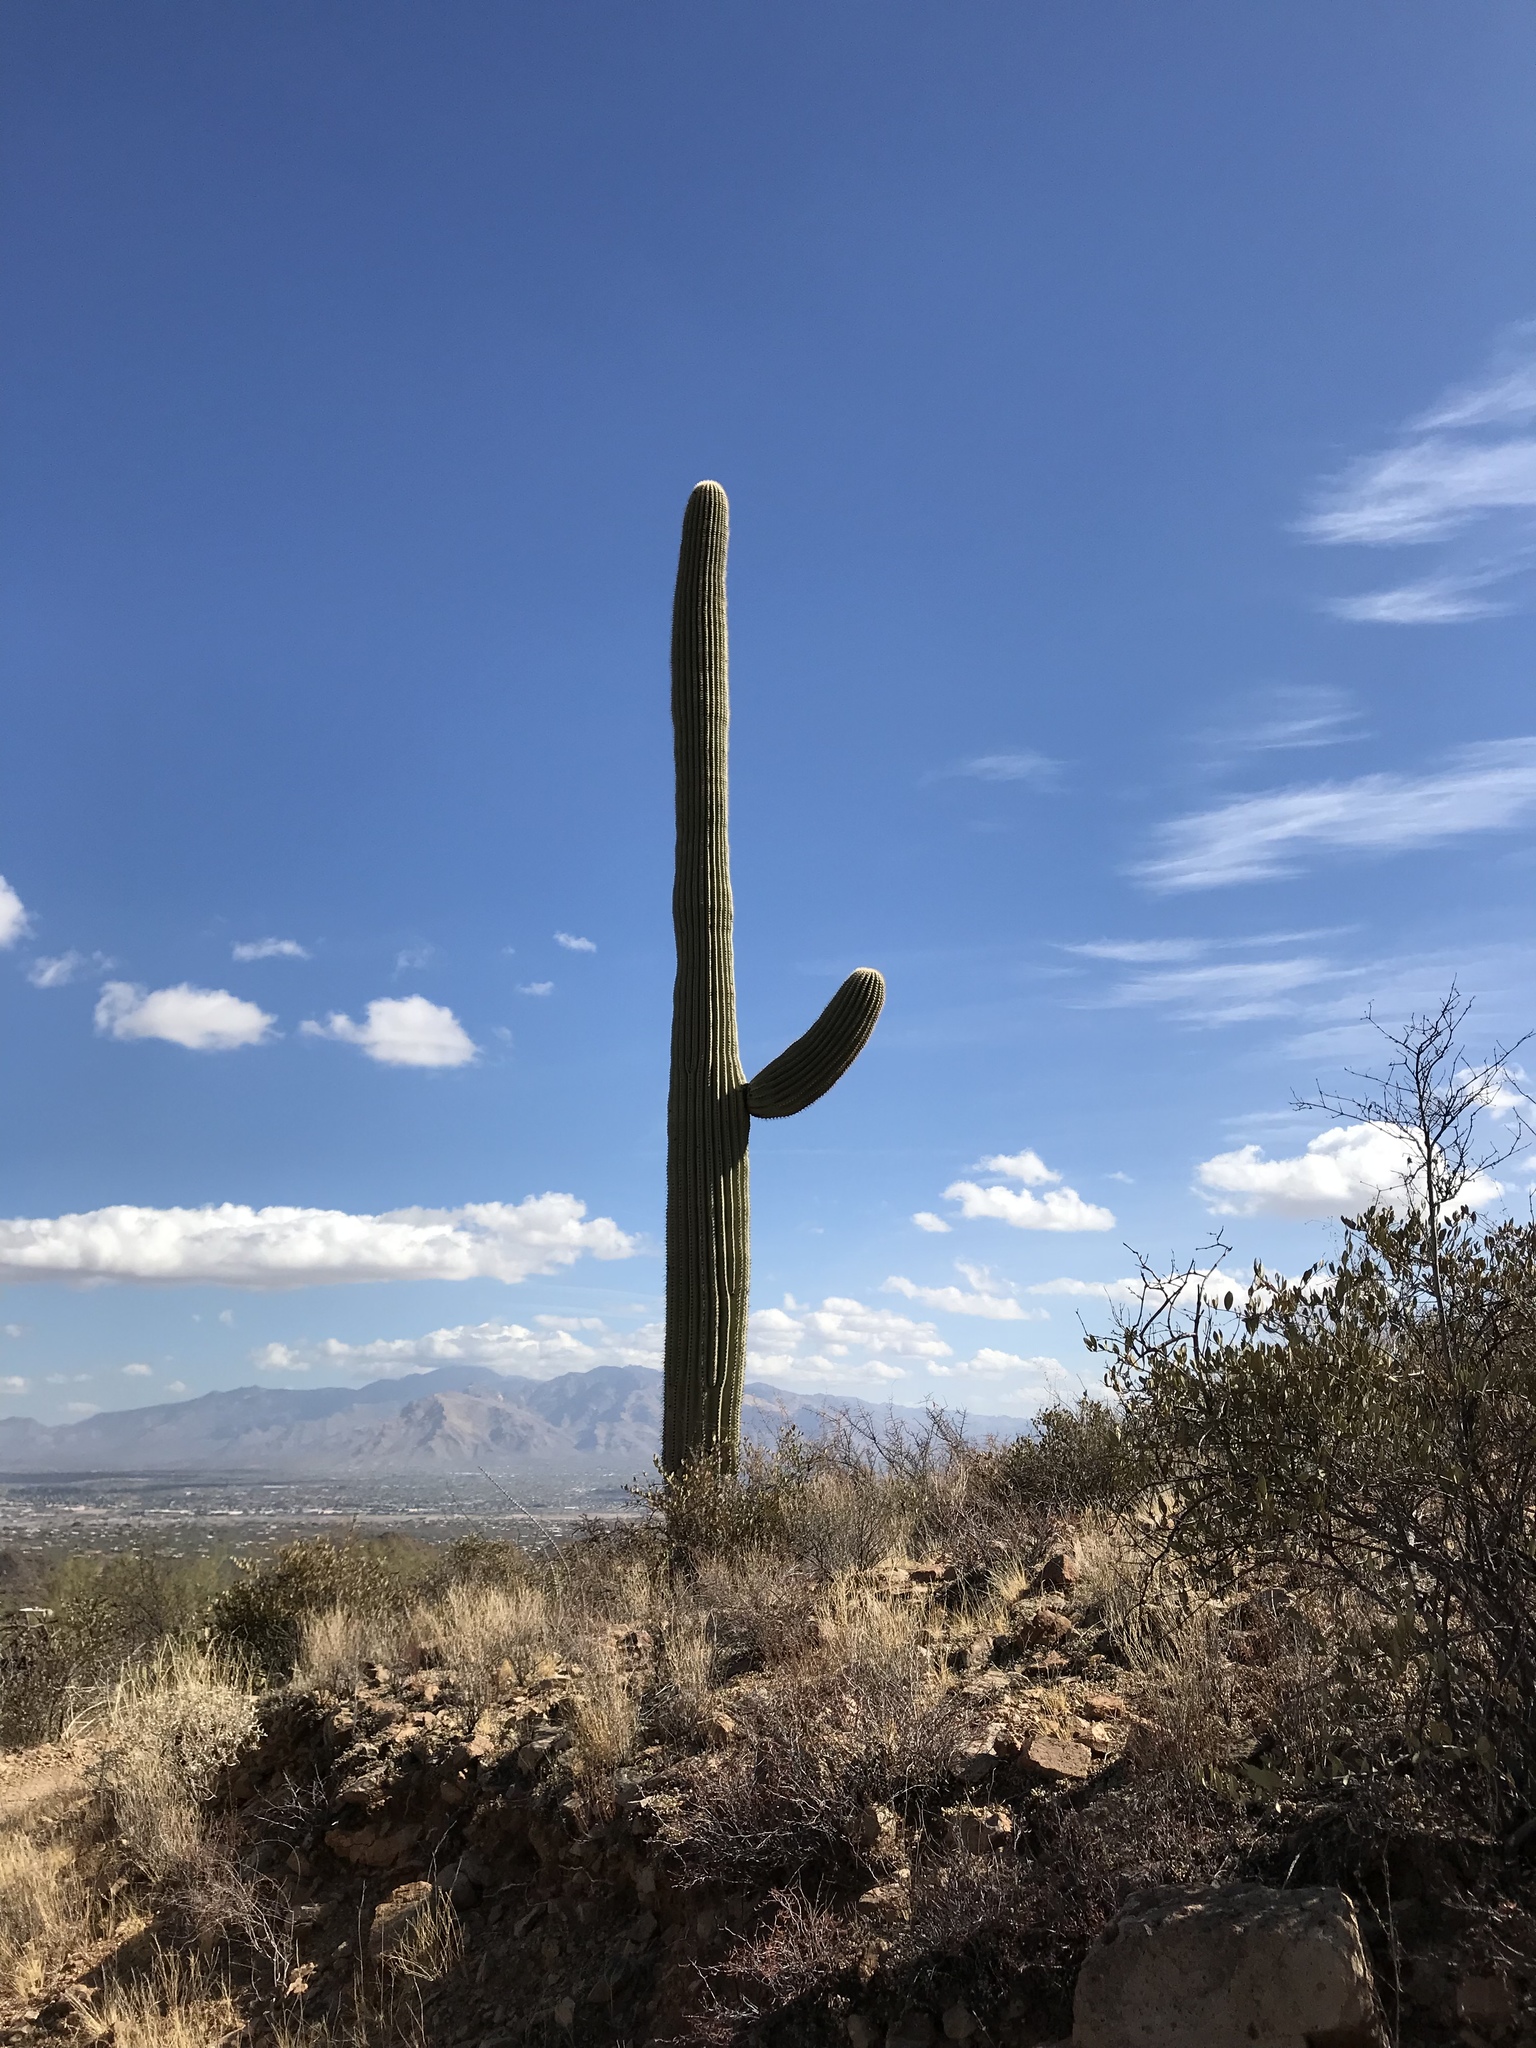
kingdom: Plantae
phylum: Tracheophyta
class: Magnoliopsida
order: Caryophyllales
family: Cactaceae
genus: Carnegiea
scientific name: Carnegiea gigantea
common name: Saguaro
